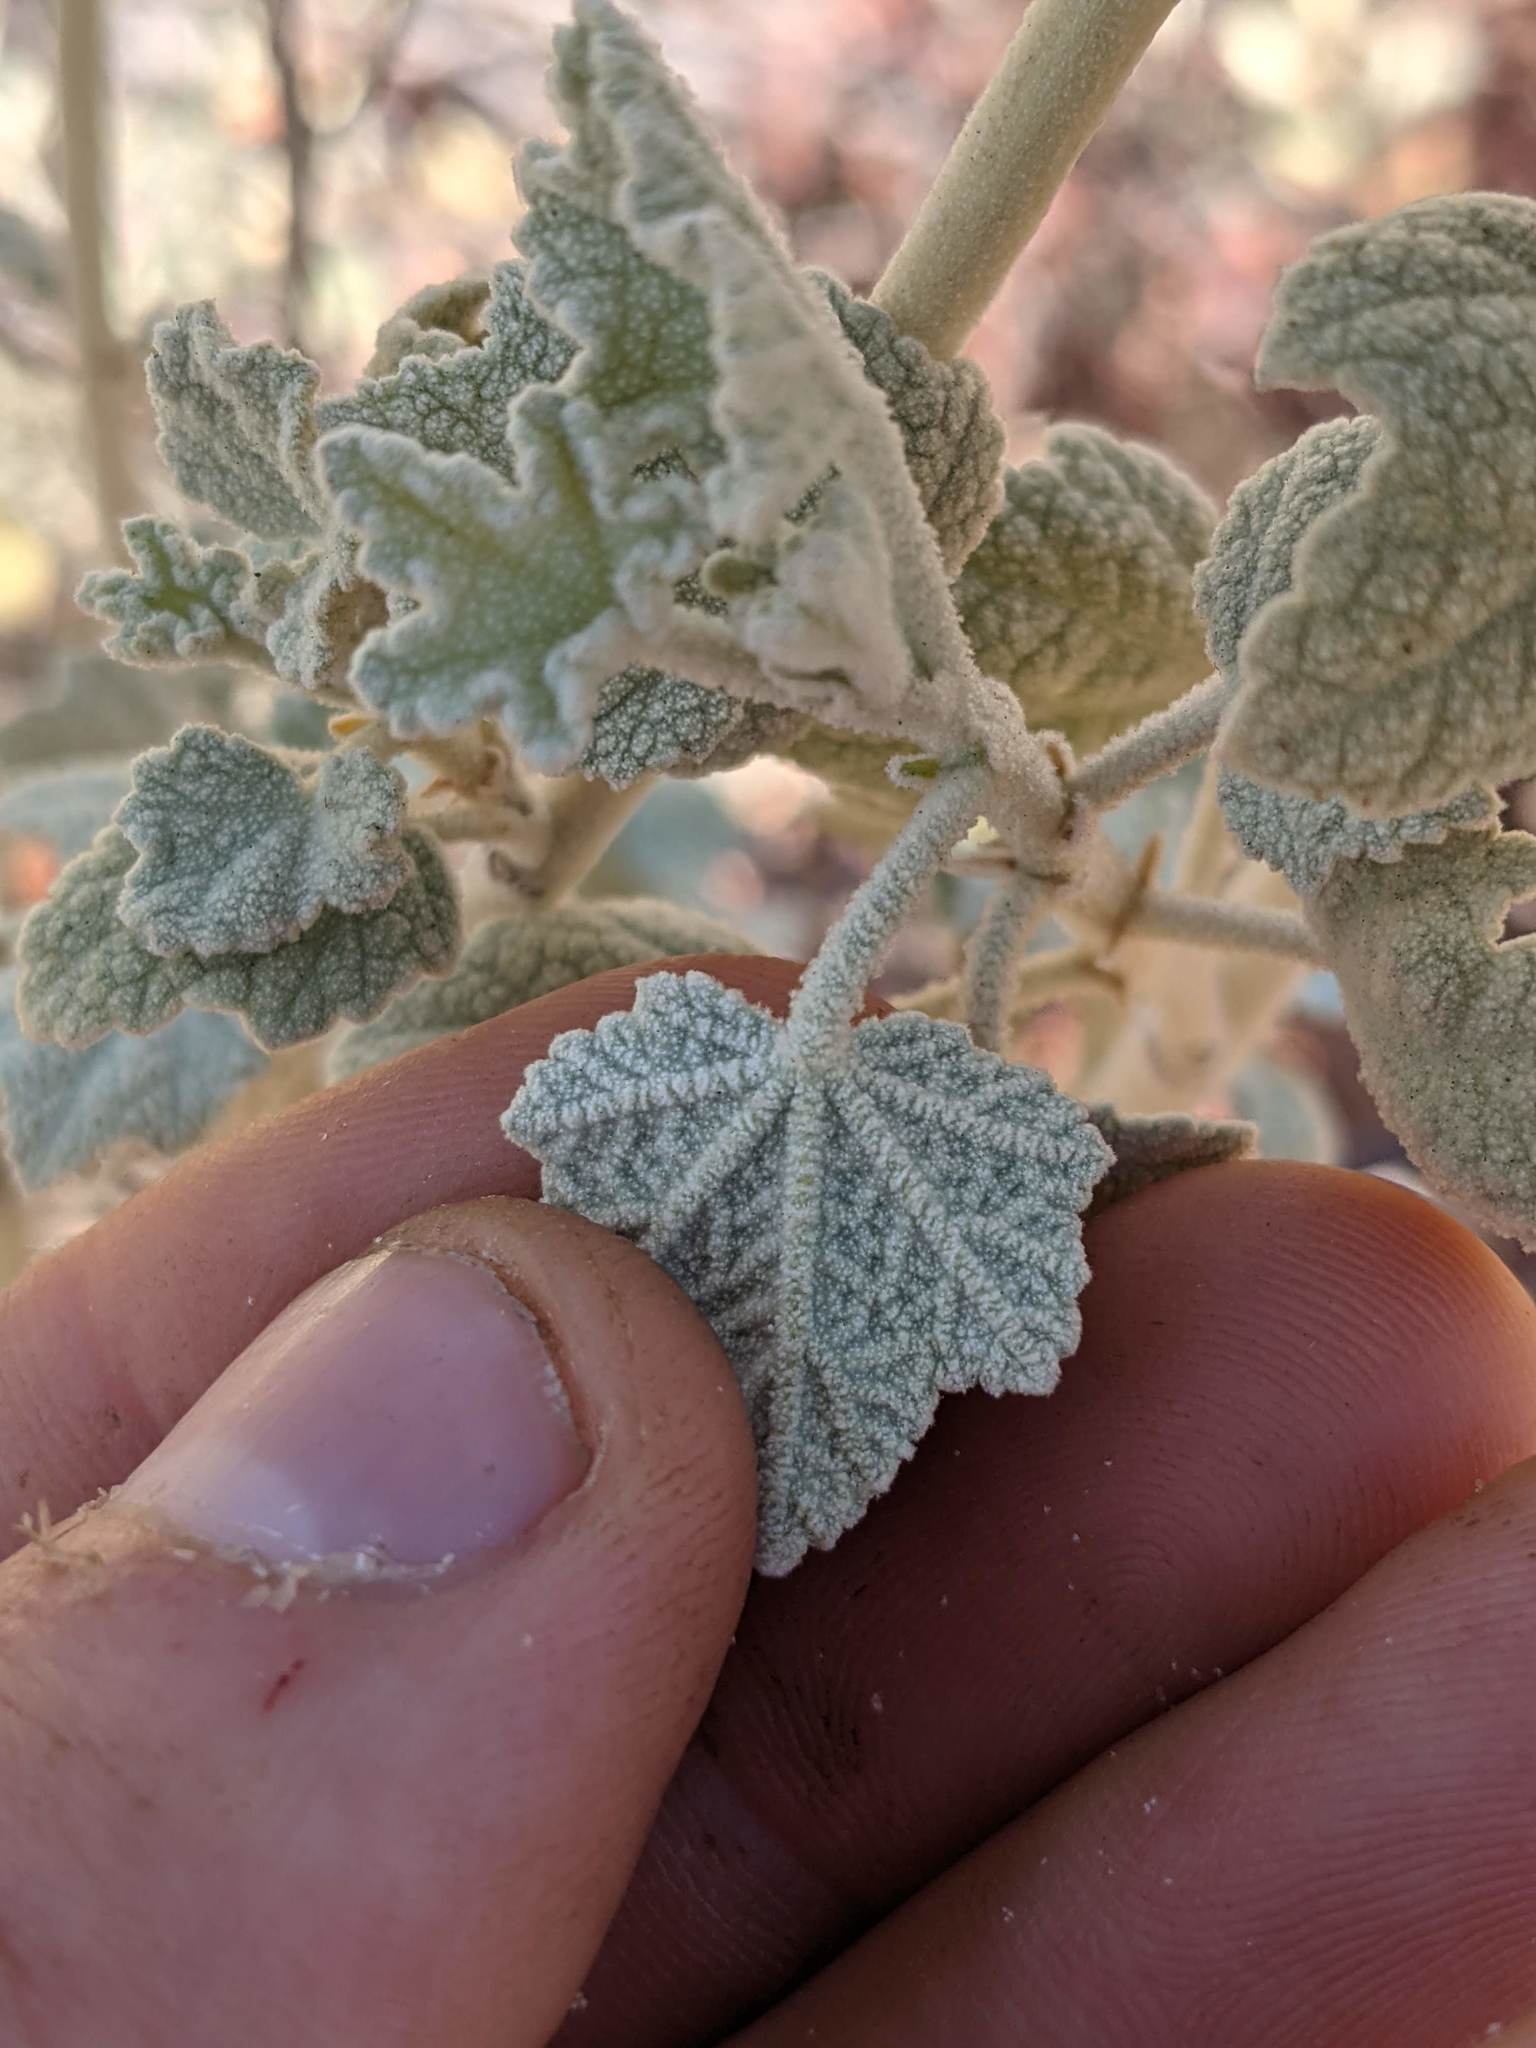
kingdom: Plantae
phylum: Tracheophyta
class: Magnoliopsida
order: Malvales
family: Malvaceae
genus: Malacothamnus
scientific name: Malacothamnus abbottii
